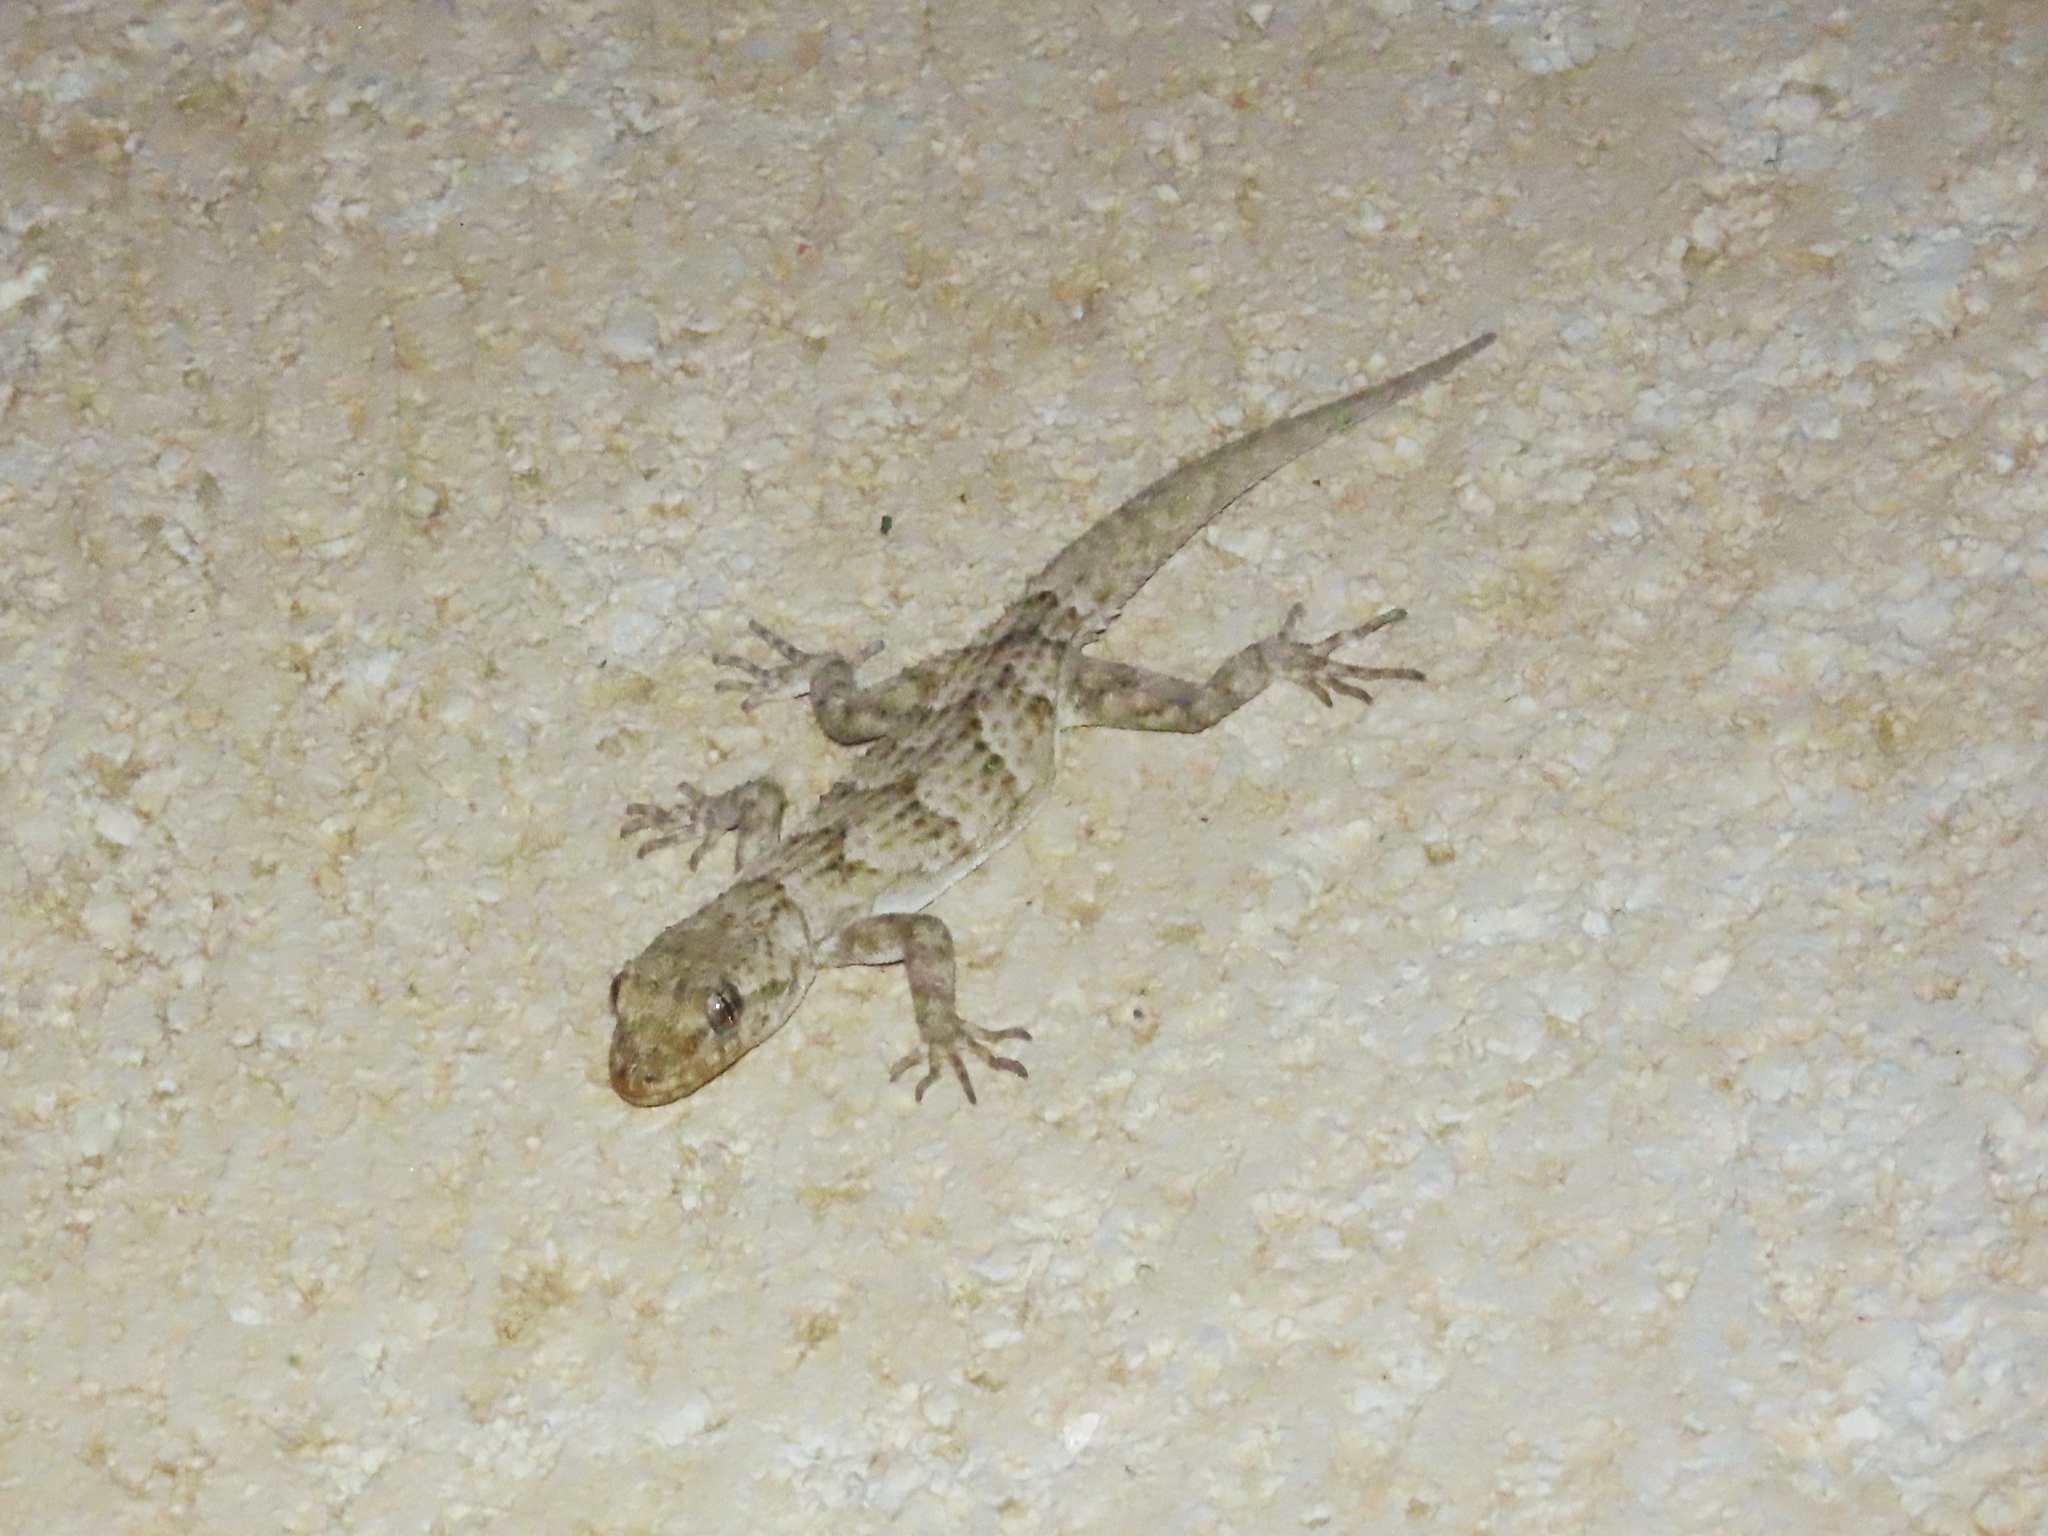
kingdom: Animalia
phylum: Chordata
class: Squamata
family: Gekkonidae
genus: Mediodactylus
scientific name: Mediodactylus kotschyi
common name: Kotschy's gecko
